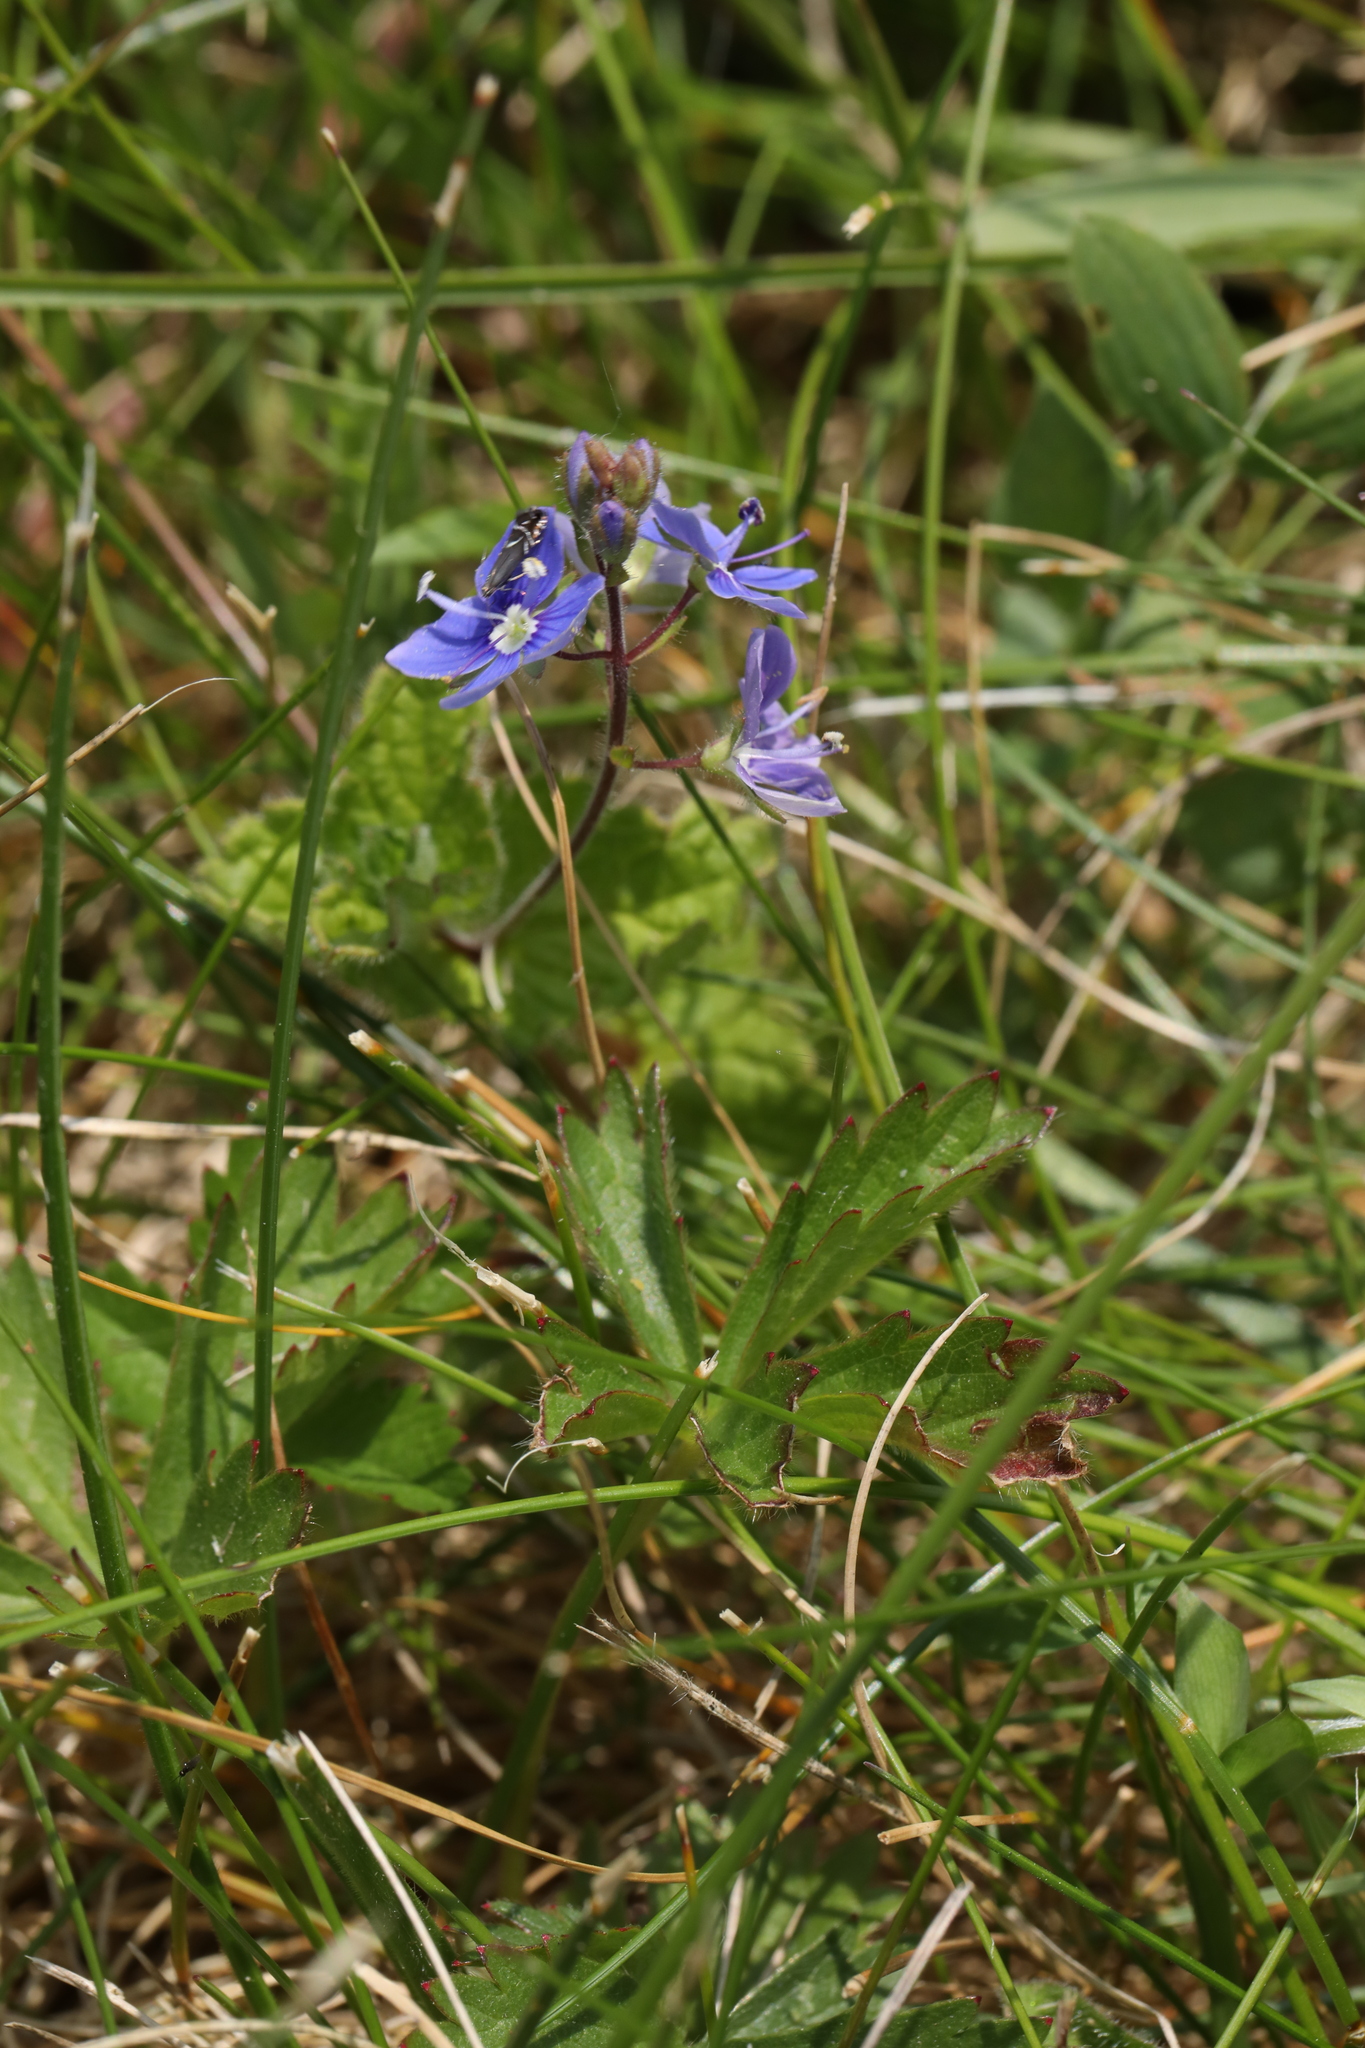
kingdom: Plantae
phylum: Tracheophyta
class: Magnoliopsida
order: Lamiales
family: Plantaginaceae
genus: Veronica
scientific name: Veronica chamaedrys
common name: Germander speedwell
